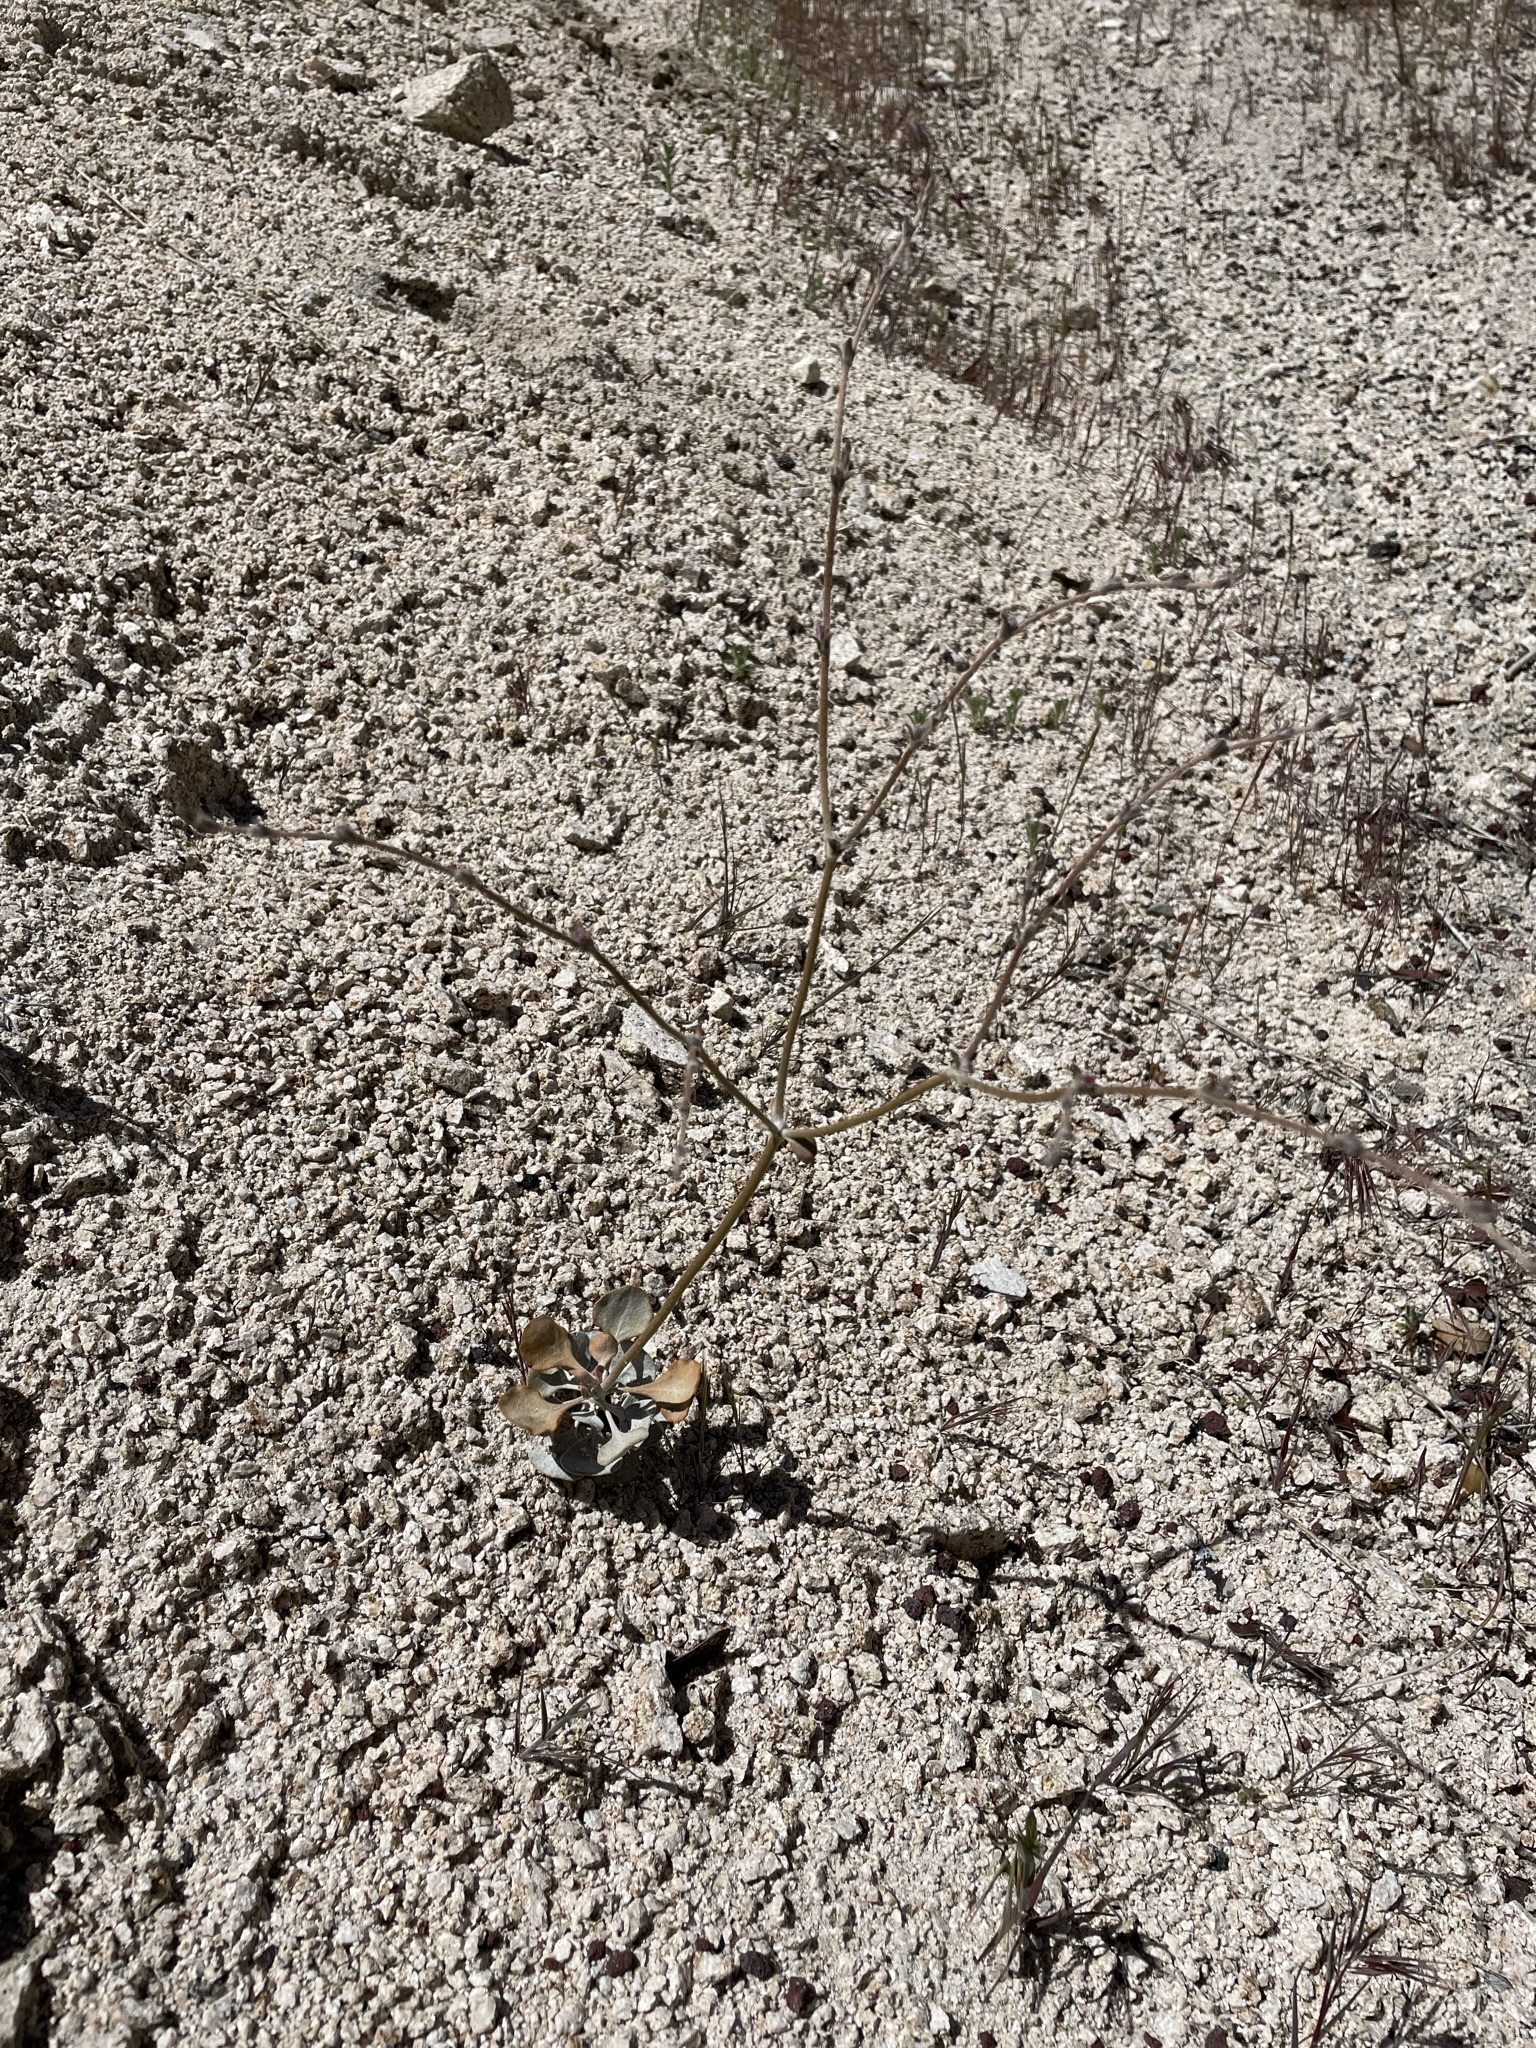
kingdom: Plantae
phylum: Tracheophyta
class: Magnoliopsida
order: Caryophyllales
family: Polygonaceae
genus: Eriogonum
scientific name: Eriogonum saxatile
